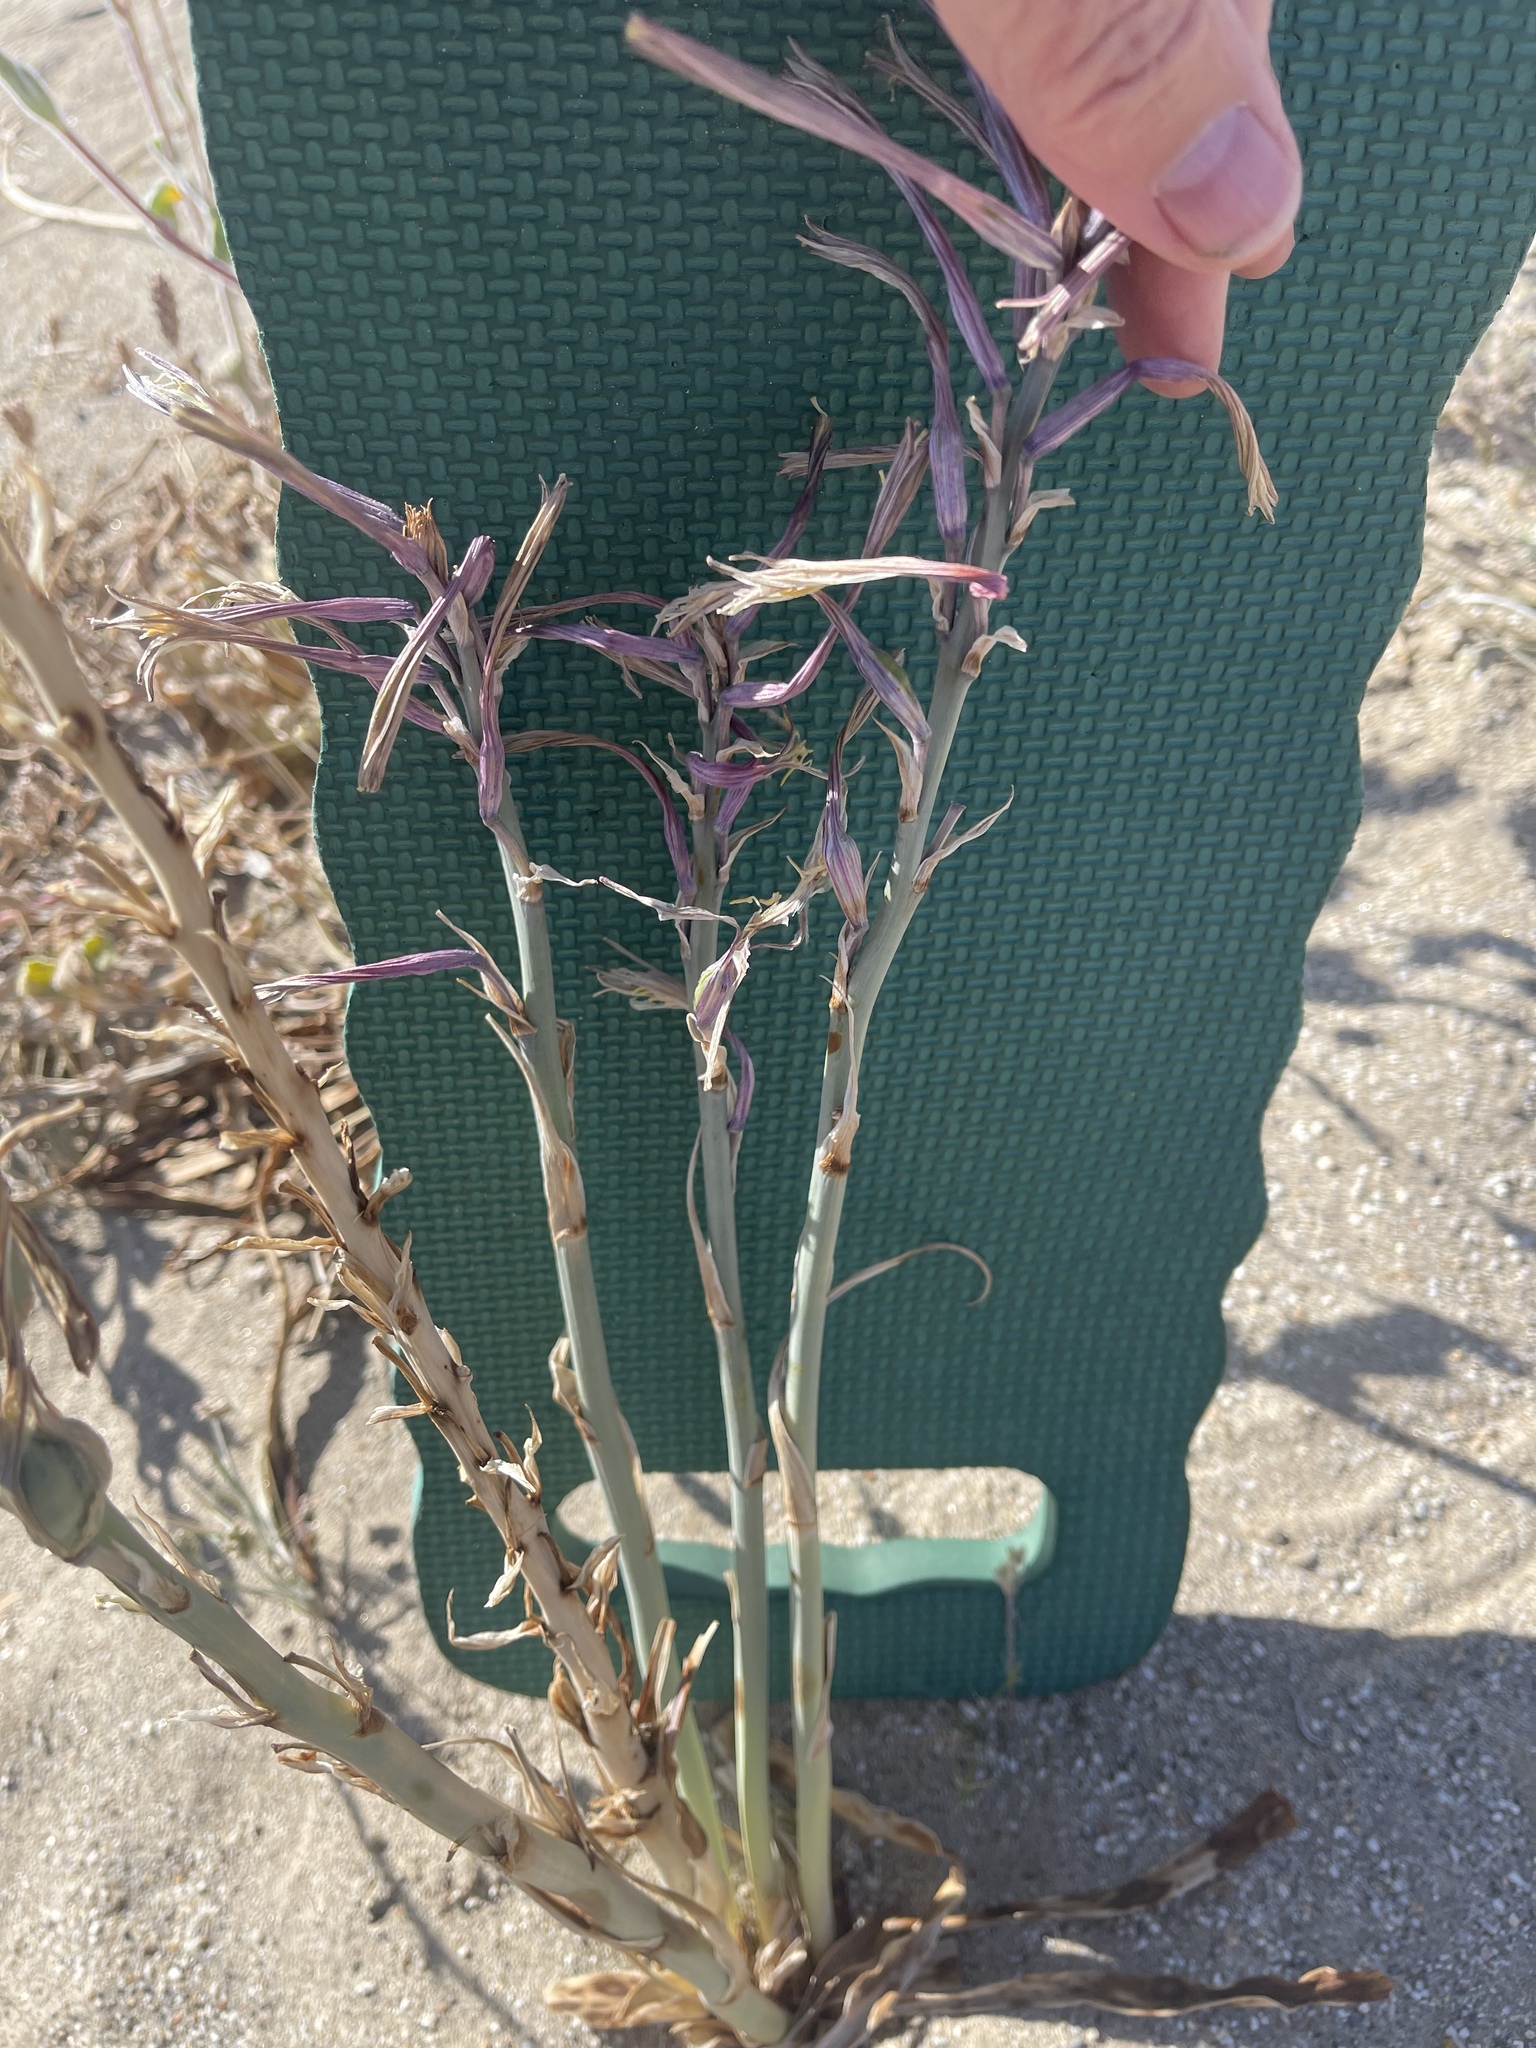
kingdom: Plantae
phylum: Tracheophyta
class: Liliopsida
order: Asparagales
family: Asparagaceae
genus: Hesperocallis
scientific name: Hesperocallis undulata
